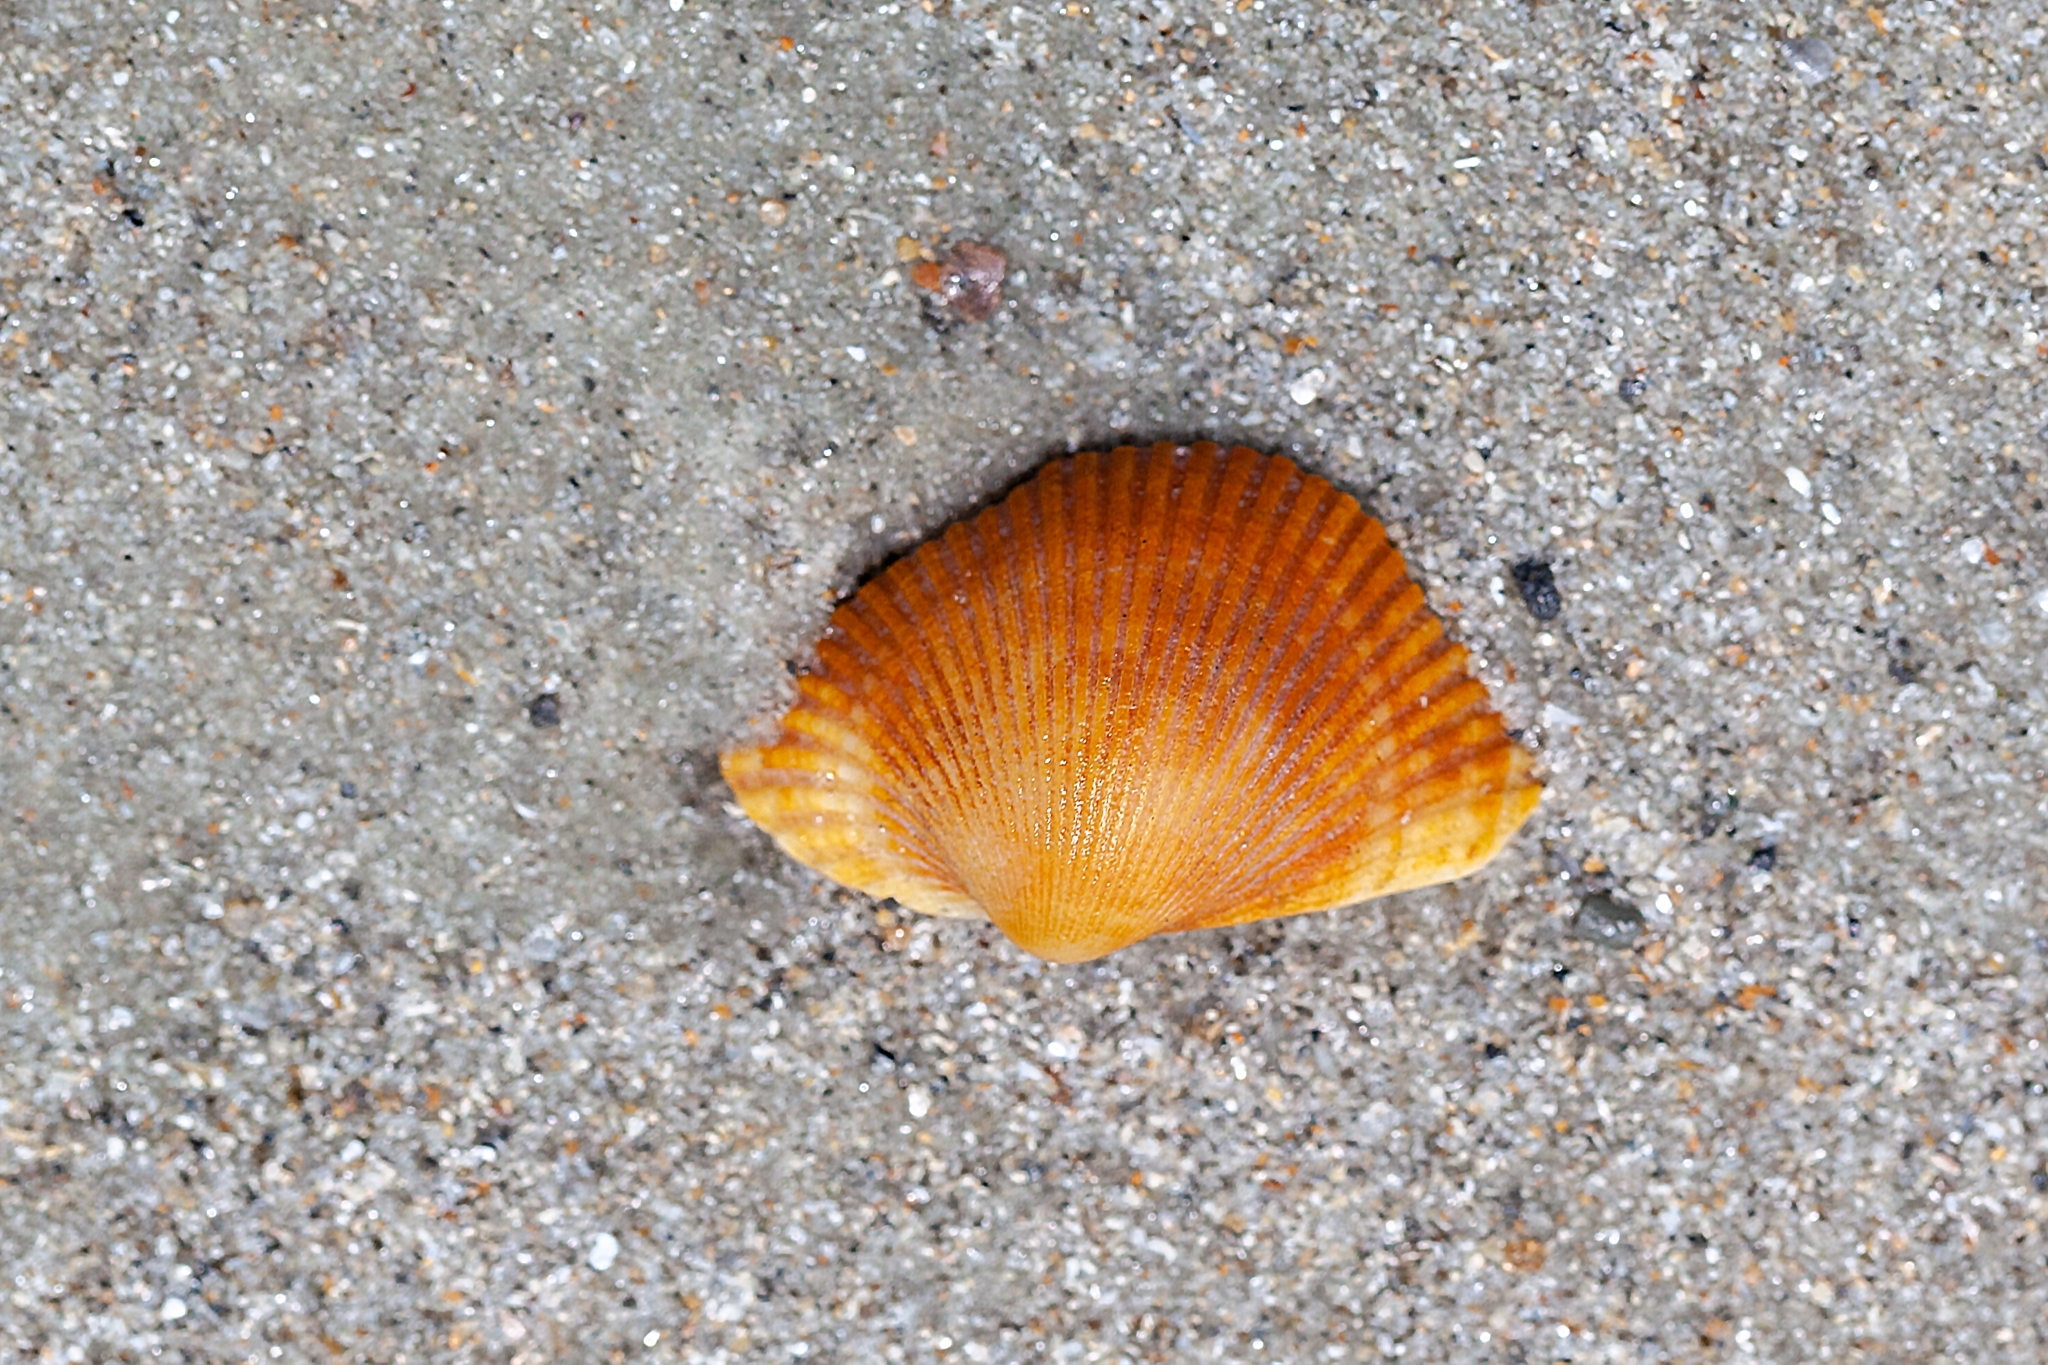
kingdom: Animalia
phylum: Mollusca
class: Bivalvia
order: Arcida
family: Arcidae
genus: Lunarca
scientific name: Lunarca ovalis
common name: Blood ark
